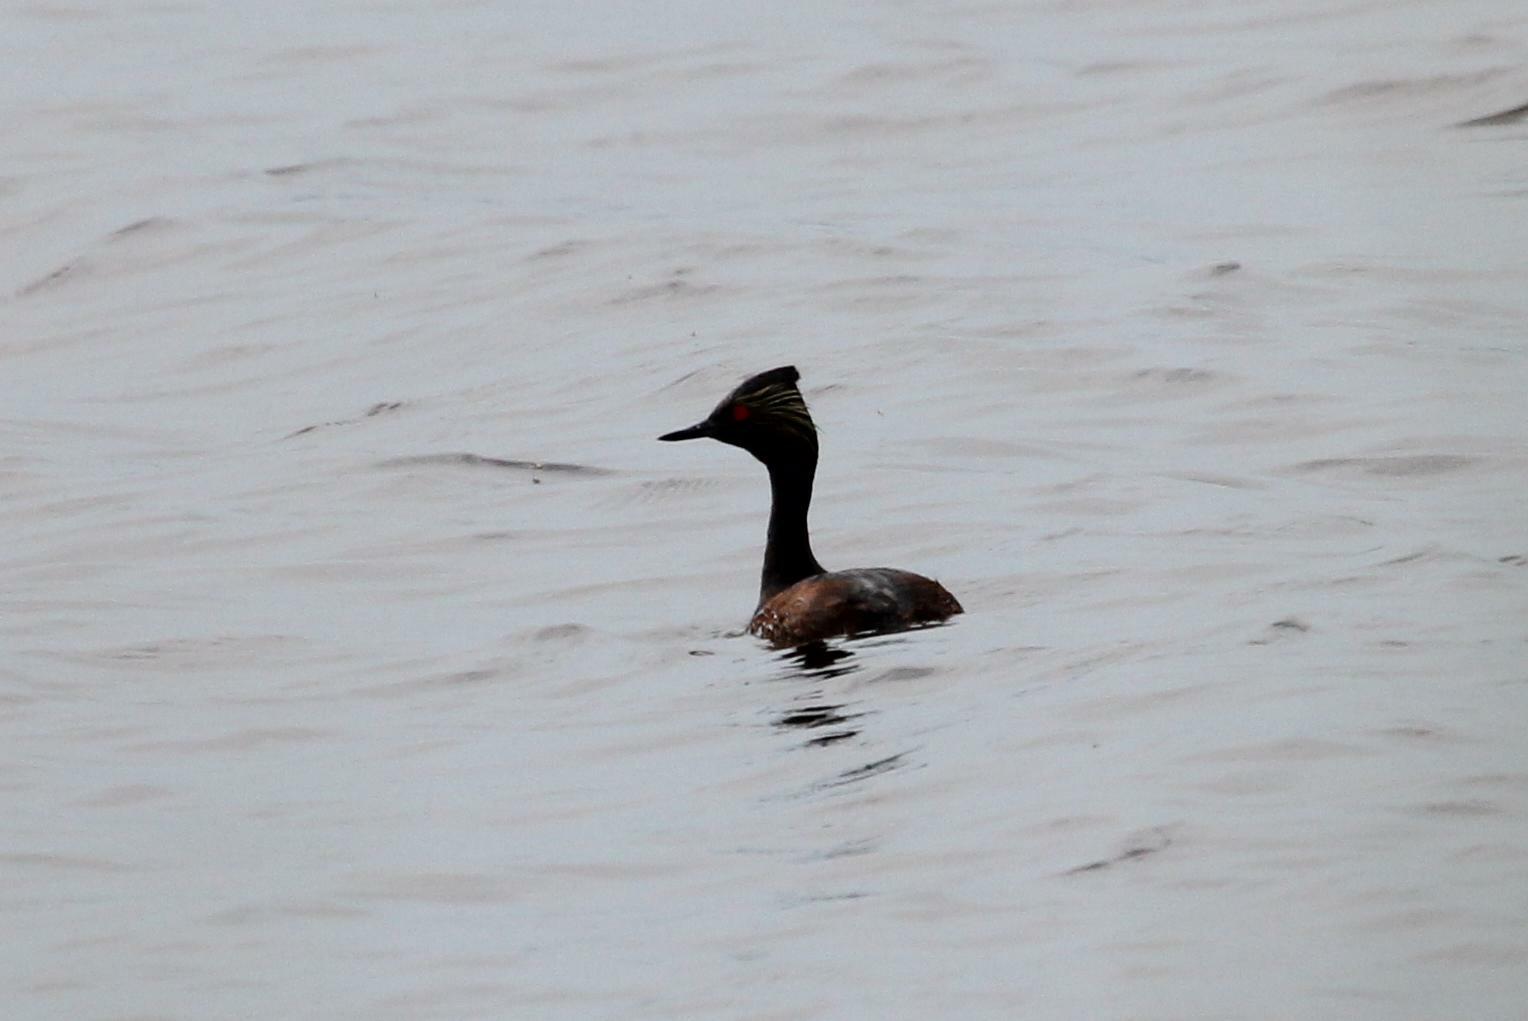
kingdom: Animalia
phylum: Chordata
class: Aves
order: Podicipediformes
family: Podicipedidae
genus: Podiceps
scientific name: Podiceps nigricollis
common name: Black-necked grebe
